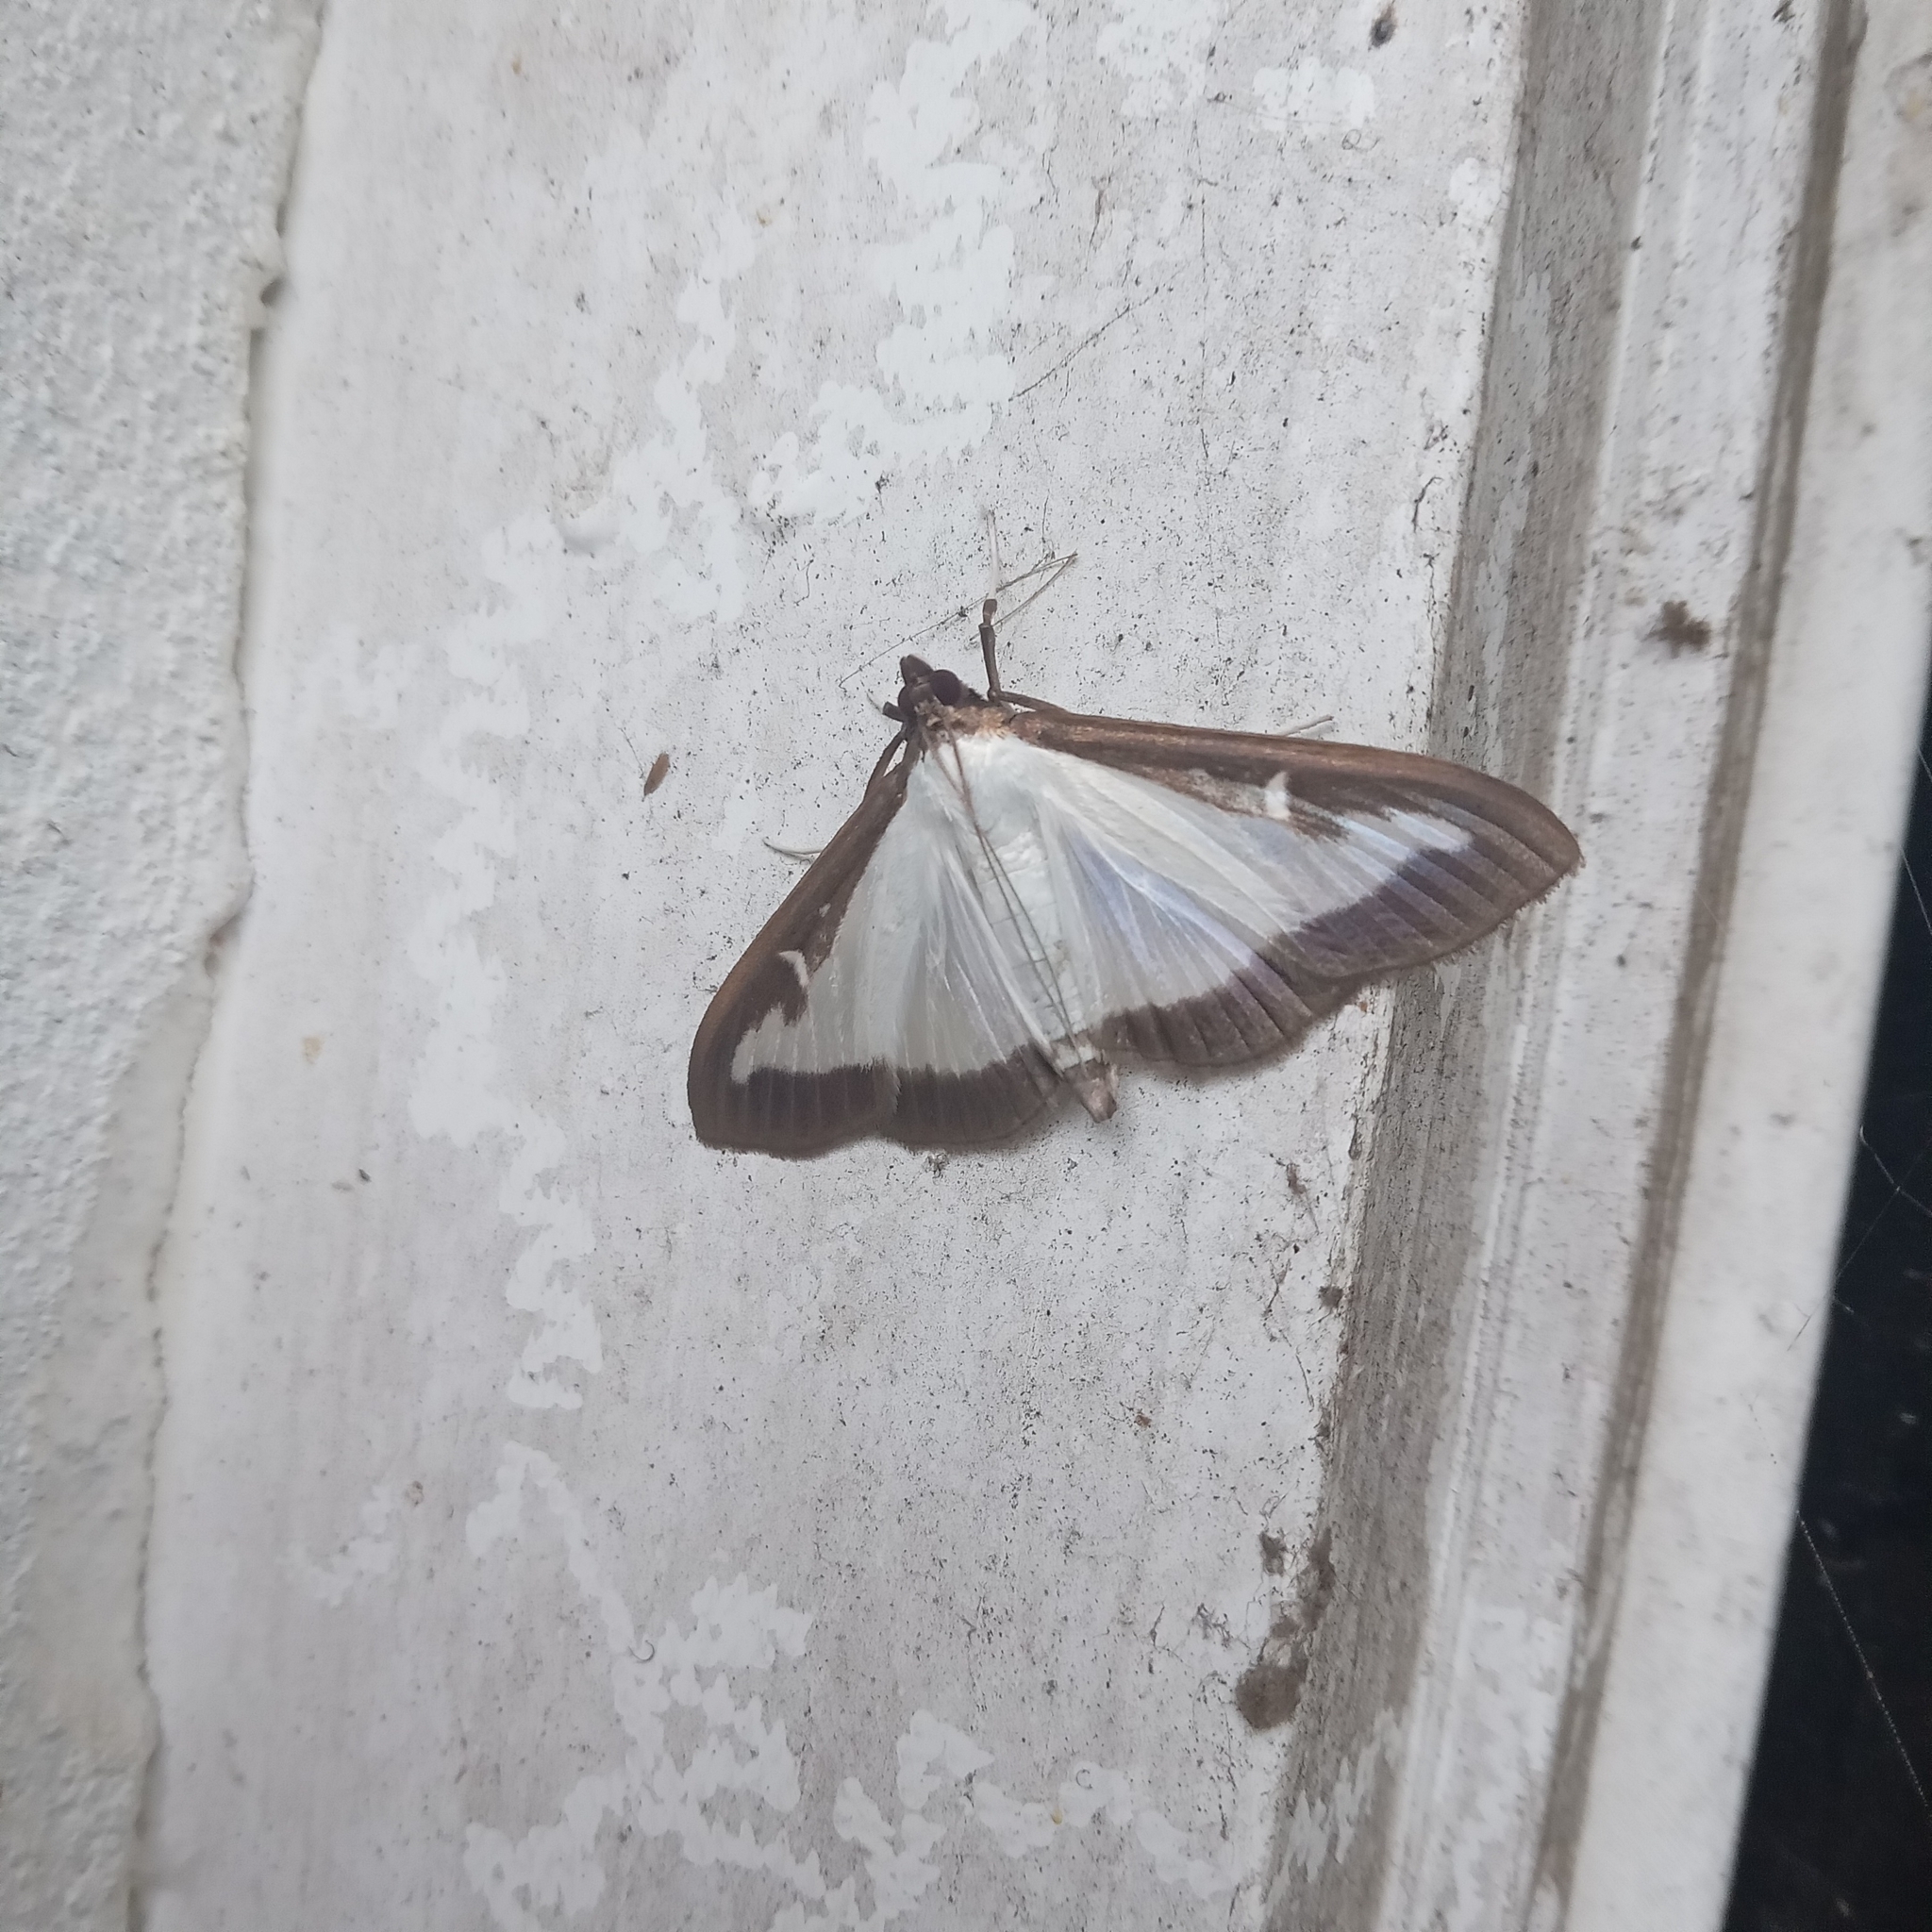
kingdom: Animalia
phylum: Arthropoda
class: Insecta
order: Lepidoptera
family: Crambidae
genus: Cydalima
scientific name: Cydalima perspectalis
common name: Box tree moth
